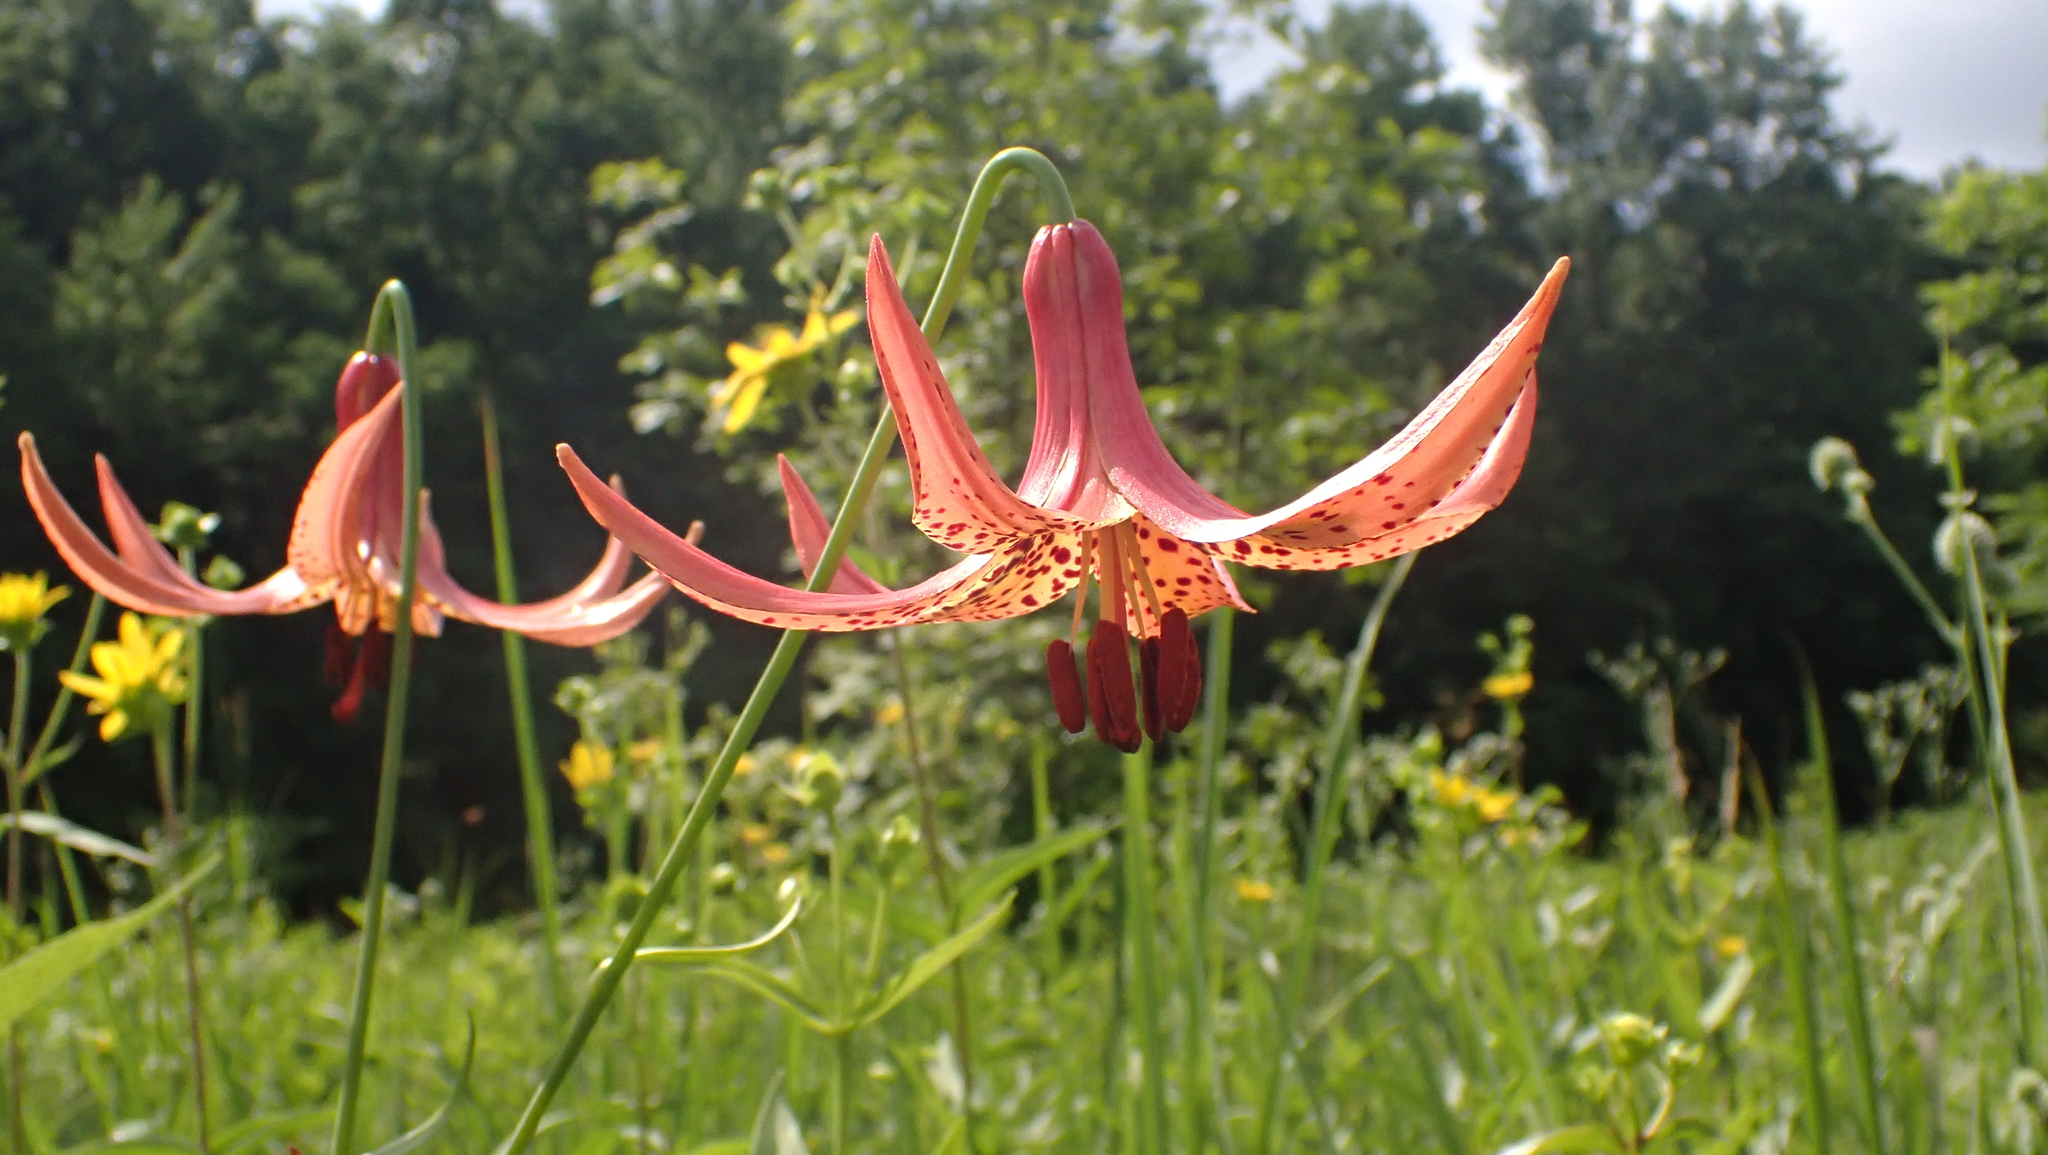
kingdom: Plantae
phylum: Tracheophyta
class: Liliopsida
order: Liliales
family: Liliaceae
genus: Lilium
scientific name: Lilium canadense
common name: Canada lily
